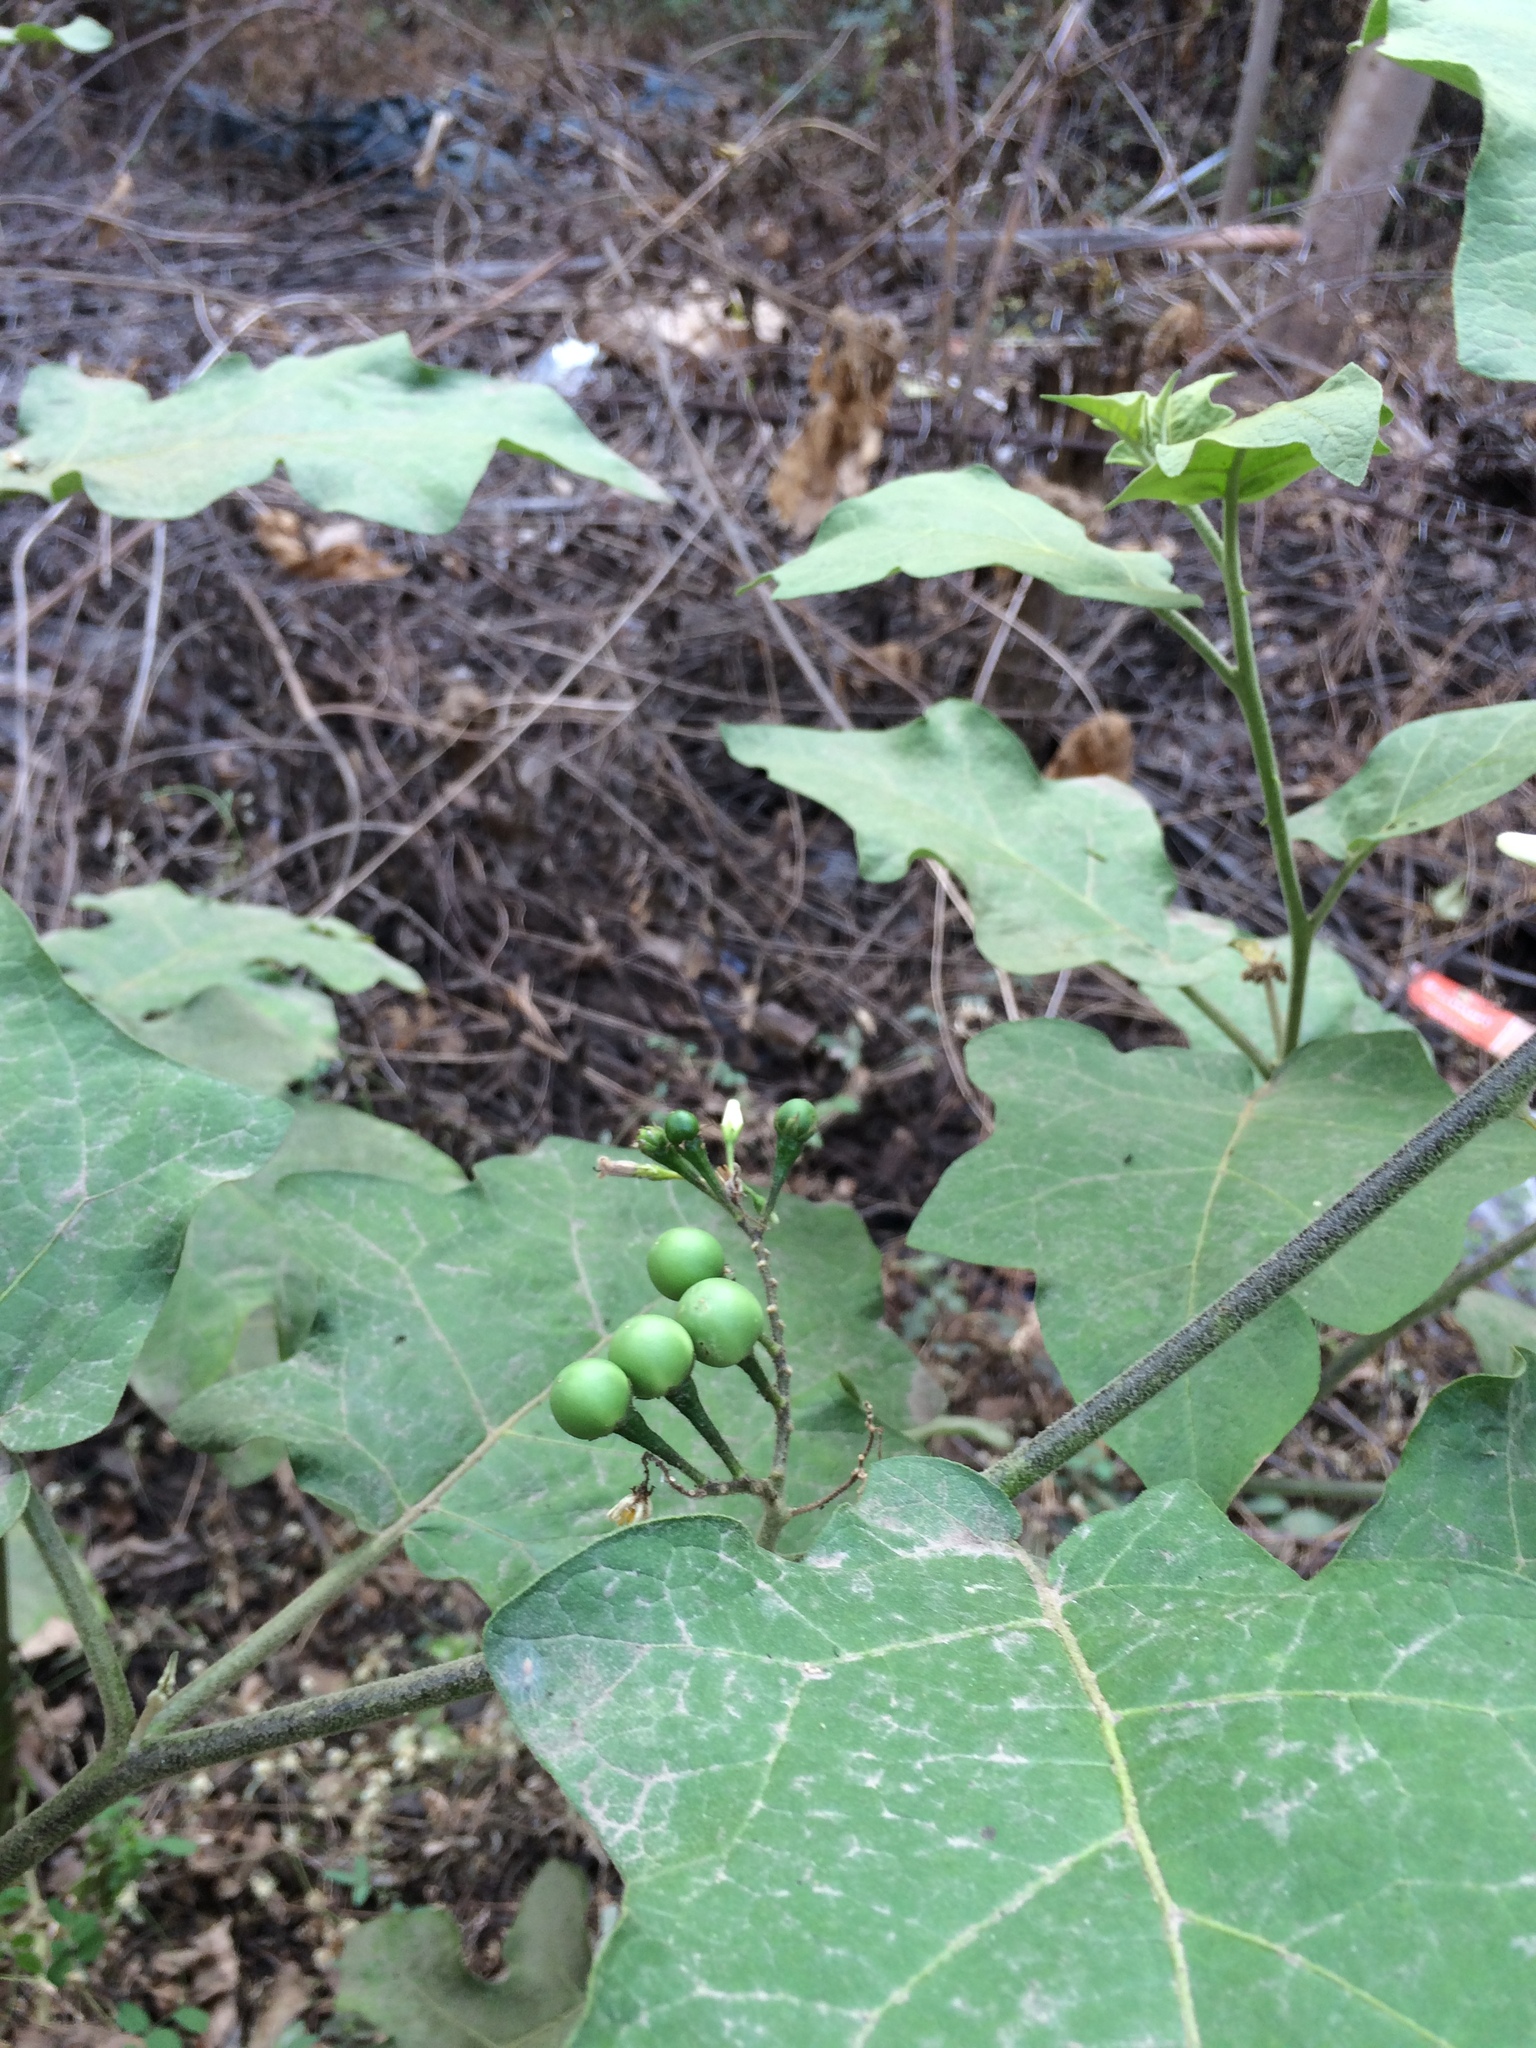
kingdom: Plantae
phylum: Tracheophyta
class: Magnoliopsida
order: Solanales
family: Solanaceae
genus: Solanum
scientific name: Solanum torvum
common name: Turkey berry
